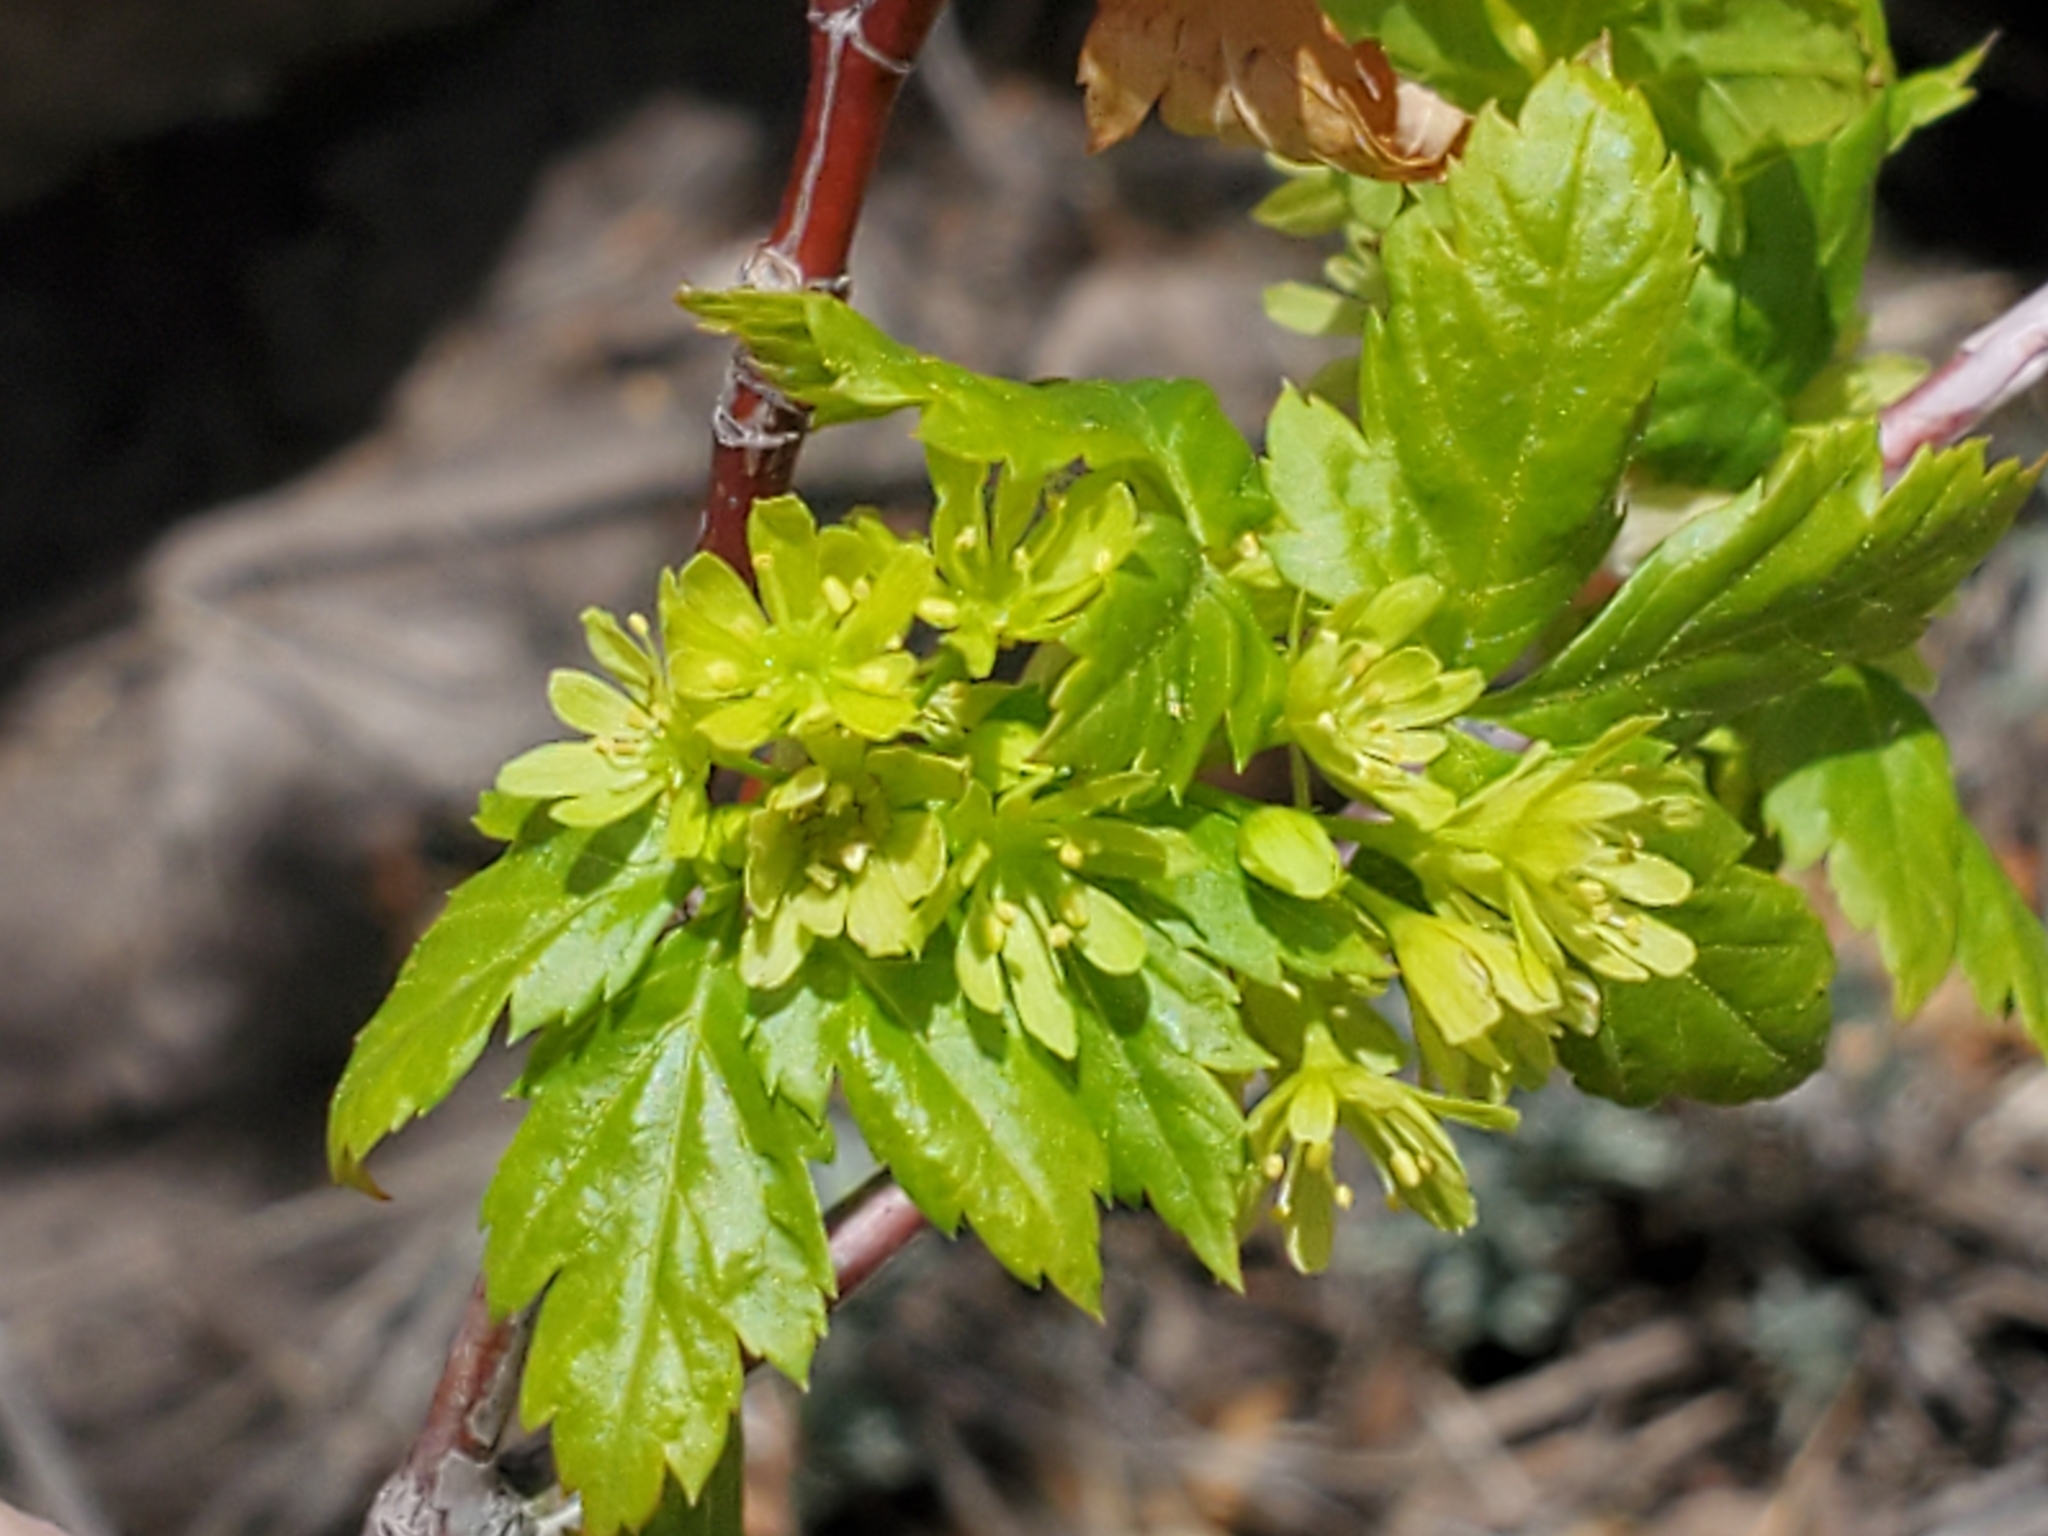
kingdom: Plantae
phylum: Tracheophyta
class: Magnoliopsida
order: Sapindales
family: Sapindaceae
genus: Acer
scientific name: Acer glabrum
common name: Rocky mountain maple
